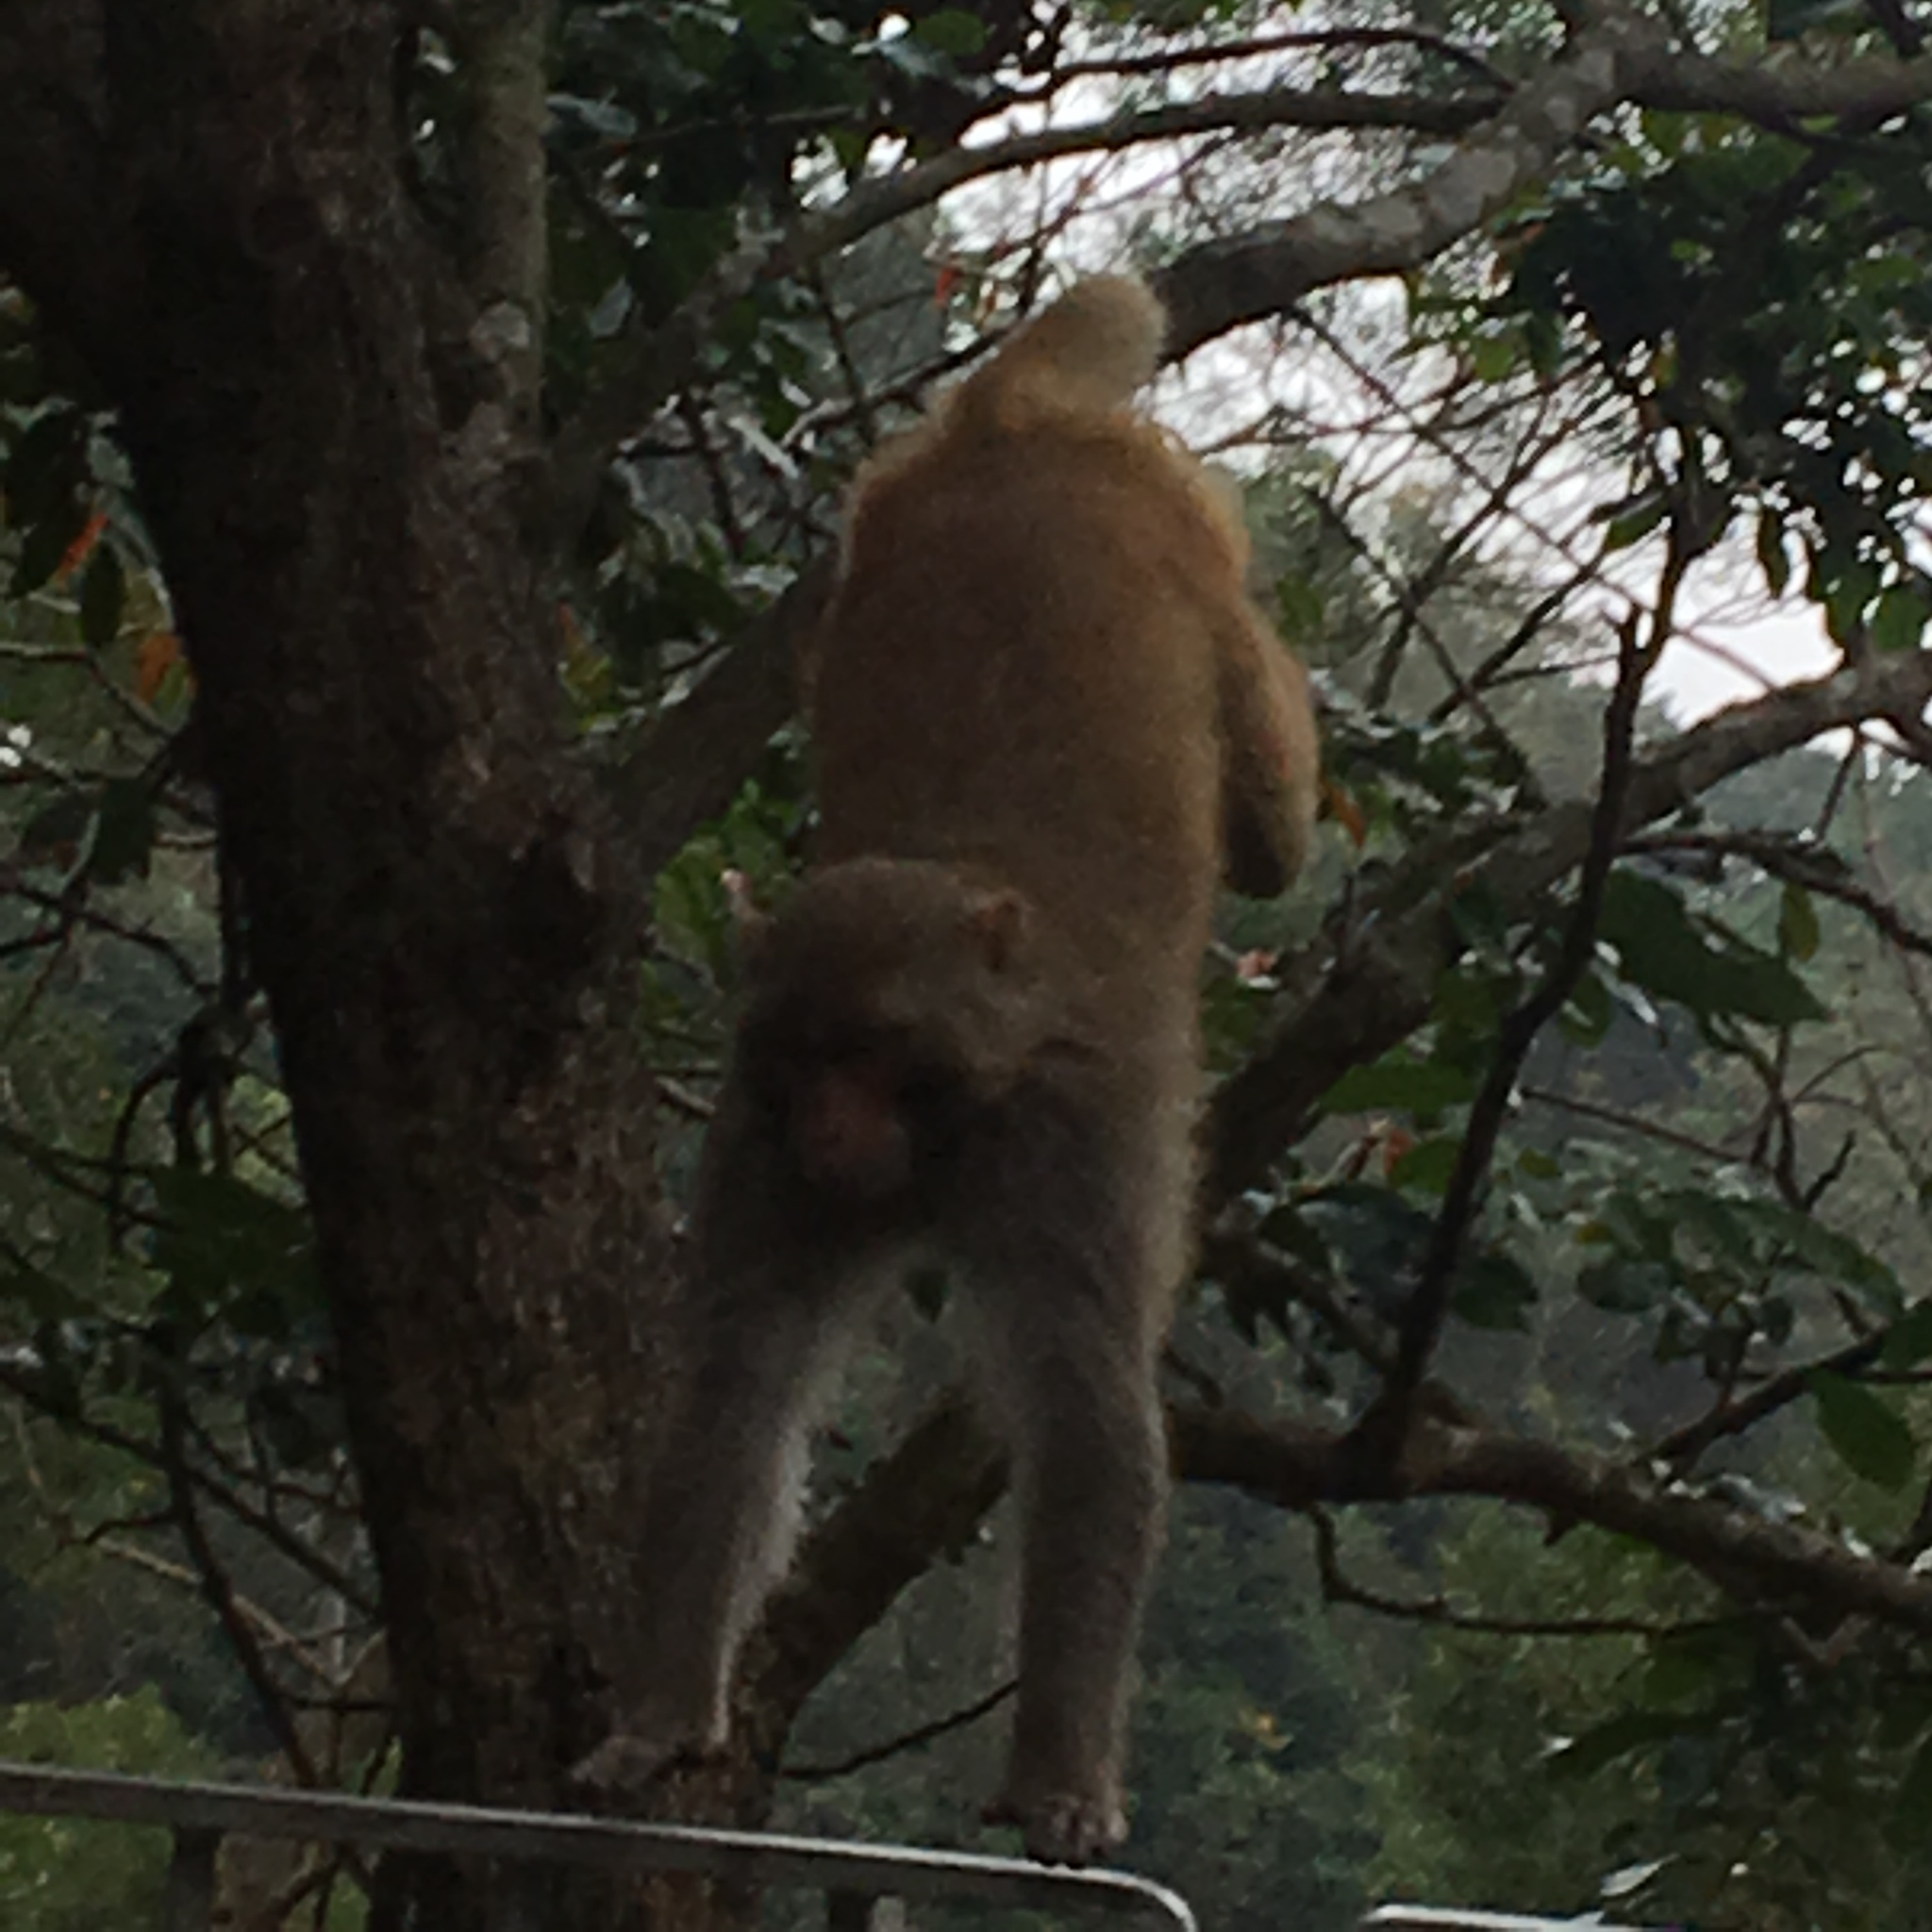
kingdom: Animalia
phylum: Chordata
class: Mammalia
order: Primates
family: Cercopithecidae
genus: Macaca
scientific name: Macaca mulatta
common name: Rhesus monkey
